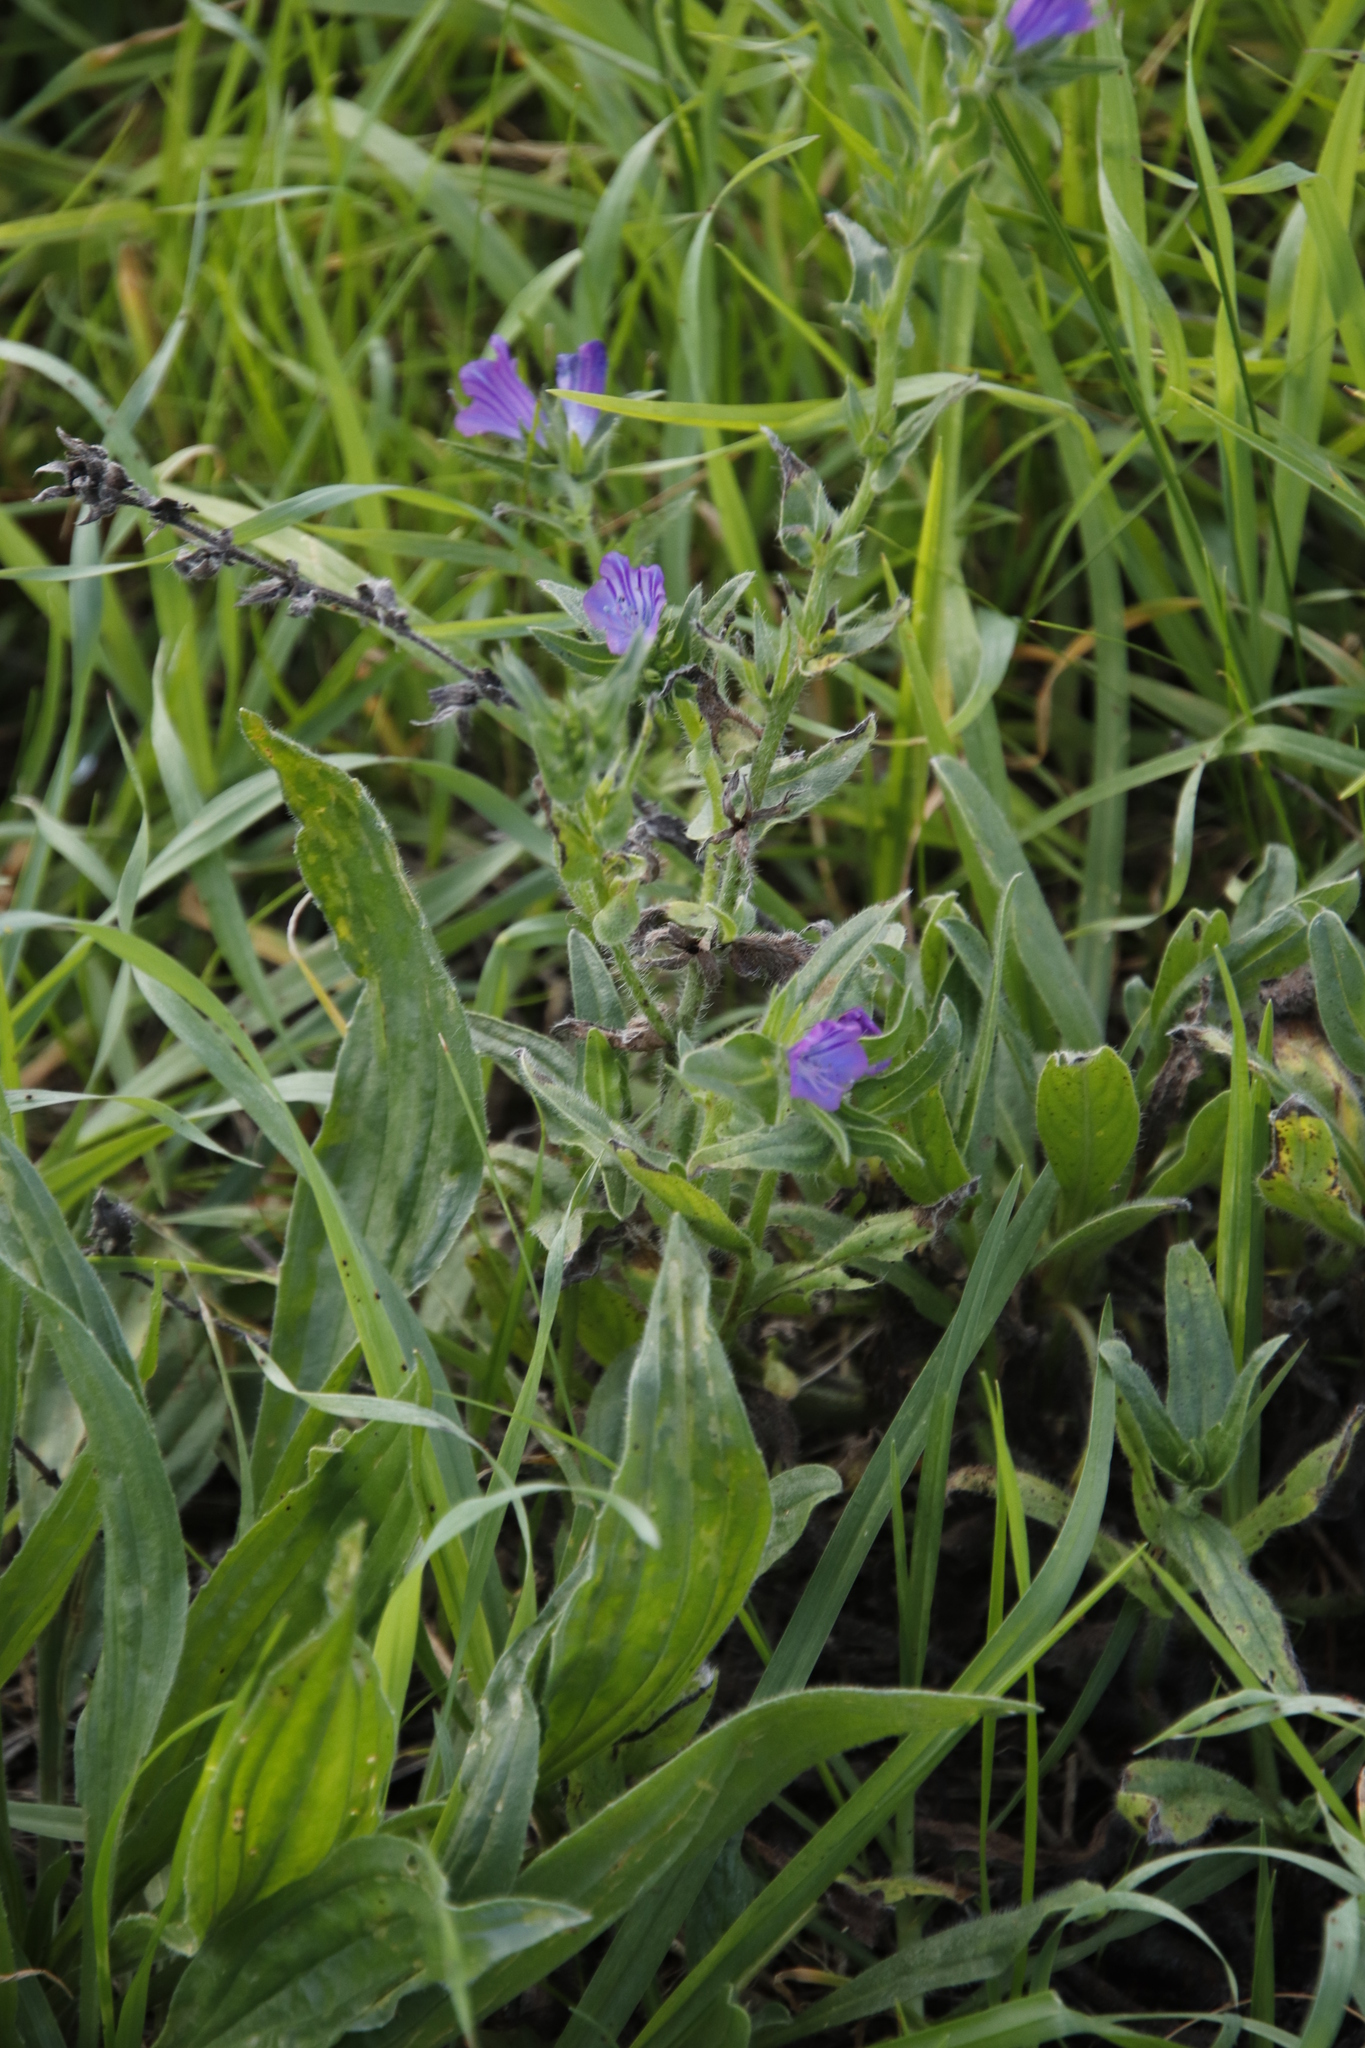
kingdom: Plantae
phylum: Tracheophyta
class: Magnoliopsida
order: Boraginales
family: Boraginaceae
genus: Echium
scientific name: Echium plantagineum
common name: Purple viper's-bugloss
